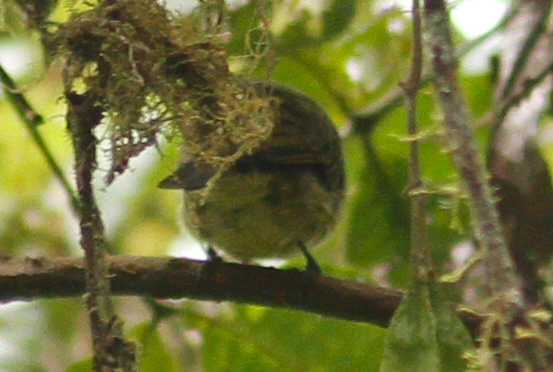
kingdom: Animalia
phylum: Chordata
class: Aves
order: Passeriformes
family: Tyrannidae
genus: Mionectes
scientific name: Mionectes striaticollis
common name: Streak-necked flycatcher
